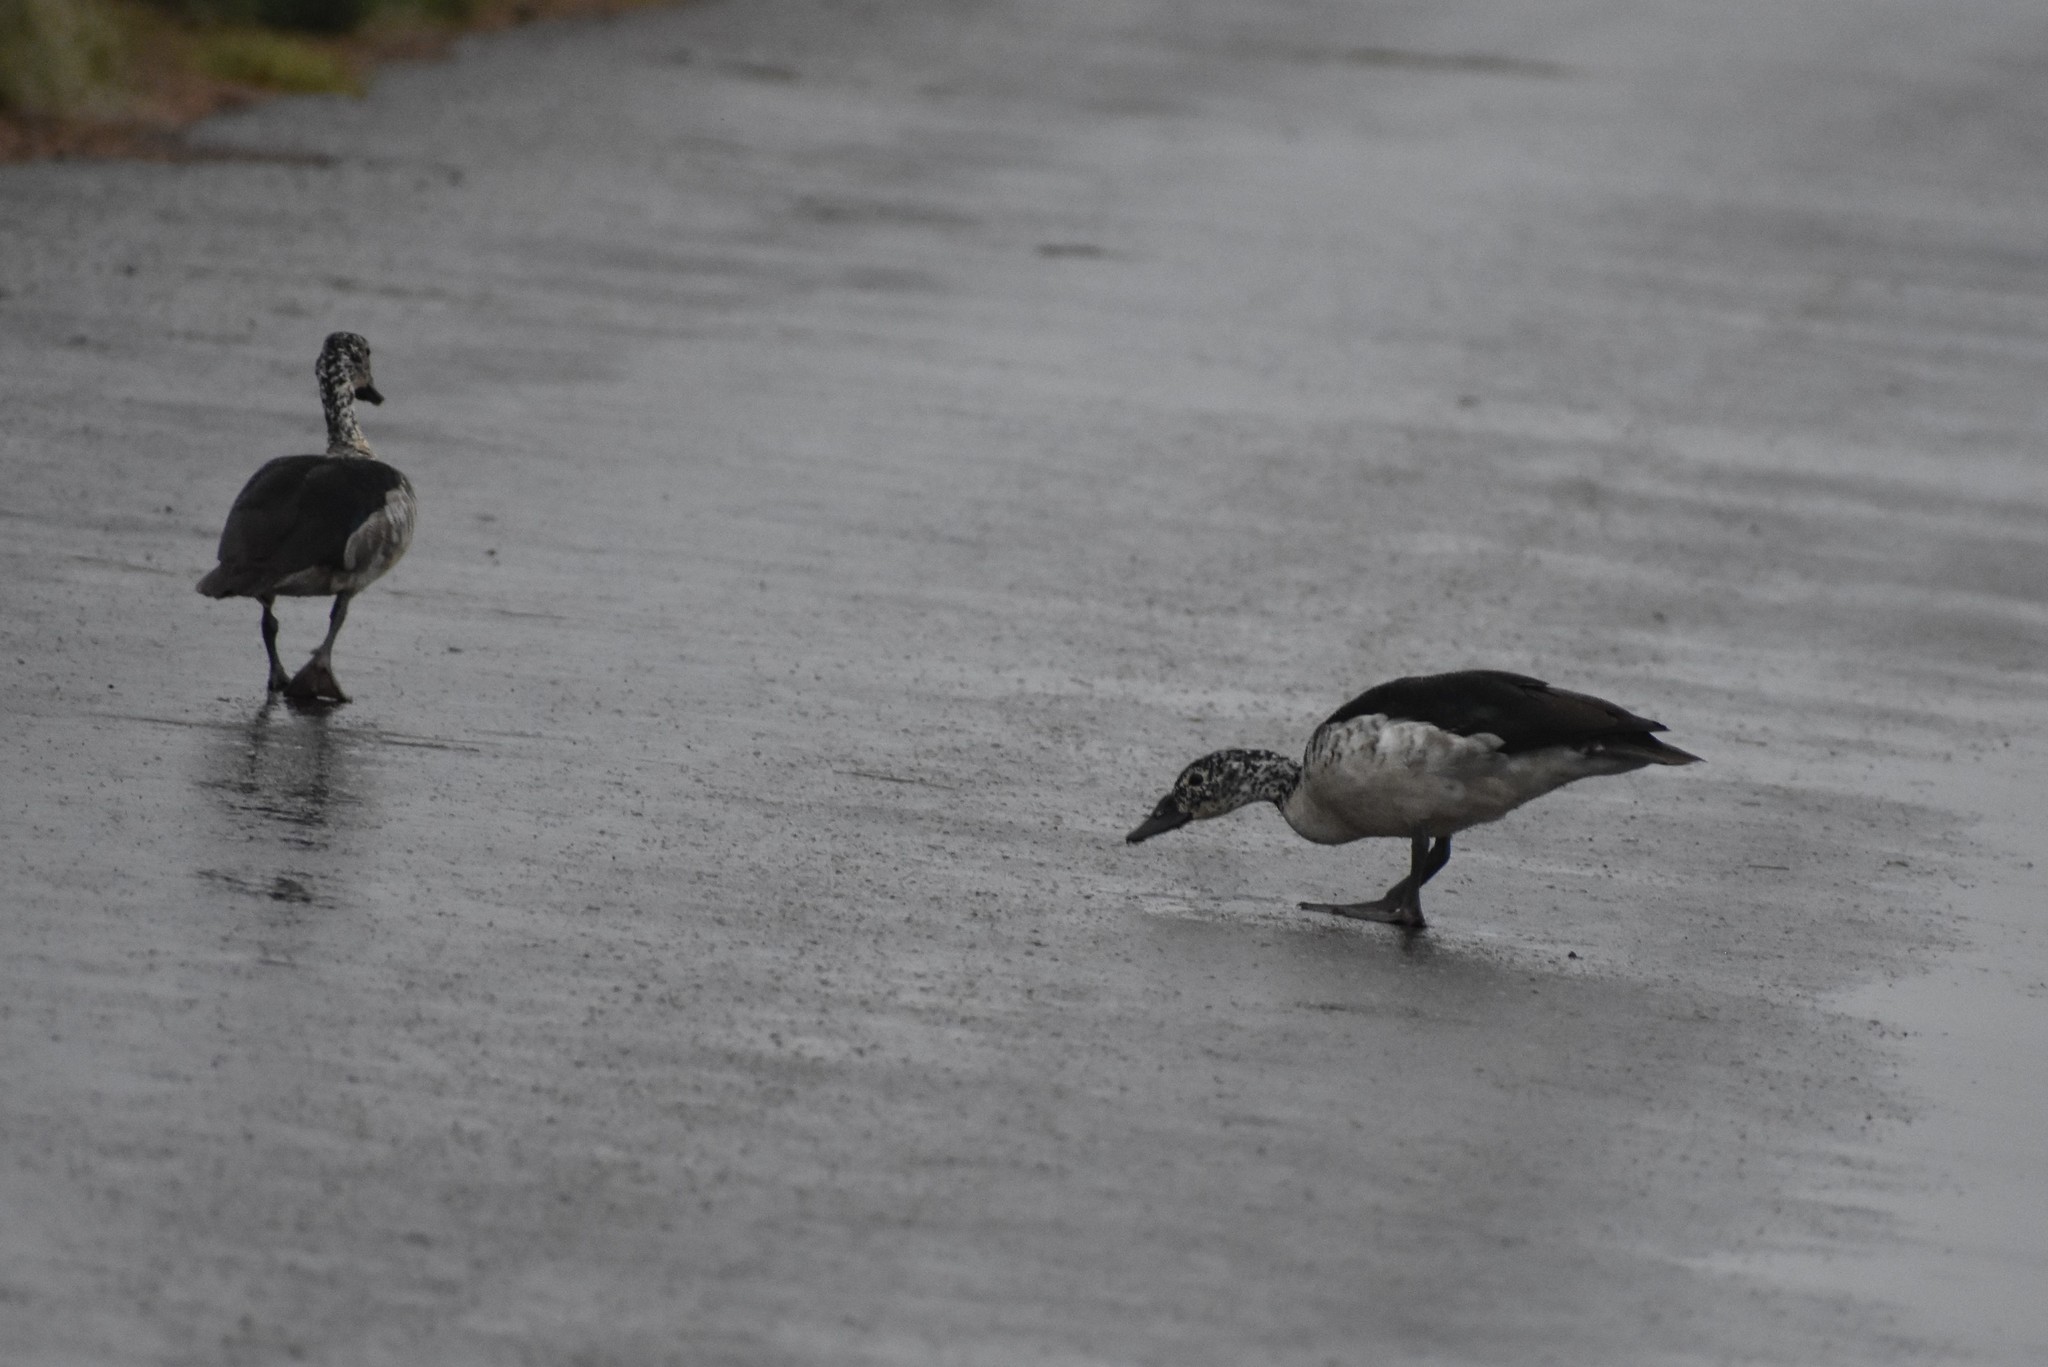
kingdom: Animalia
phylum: Chordata
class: Aves
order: Anseriformes
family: Anatidae
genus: Sarkidiornis
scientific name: Sarkidiornis melanotos
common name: Comb duck
